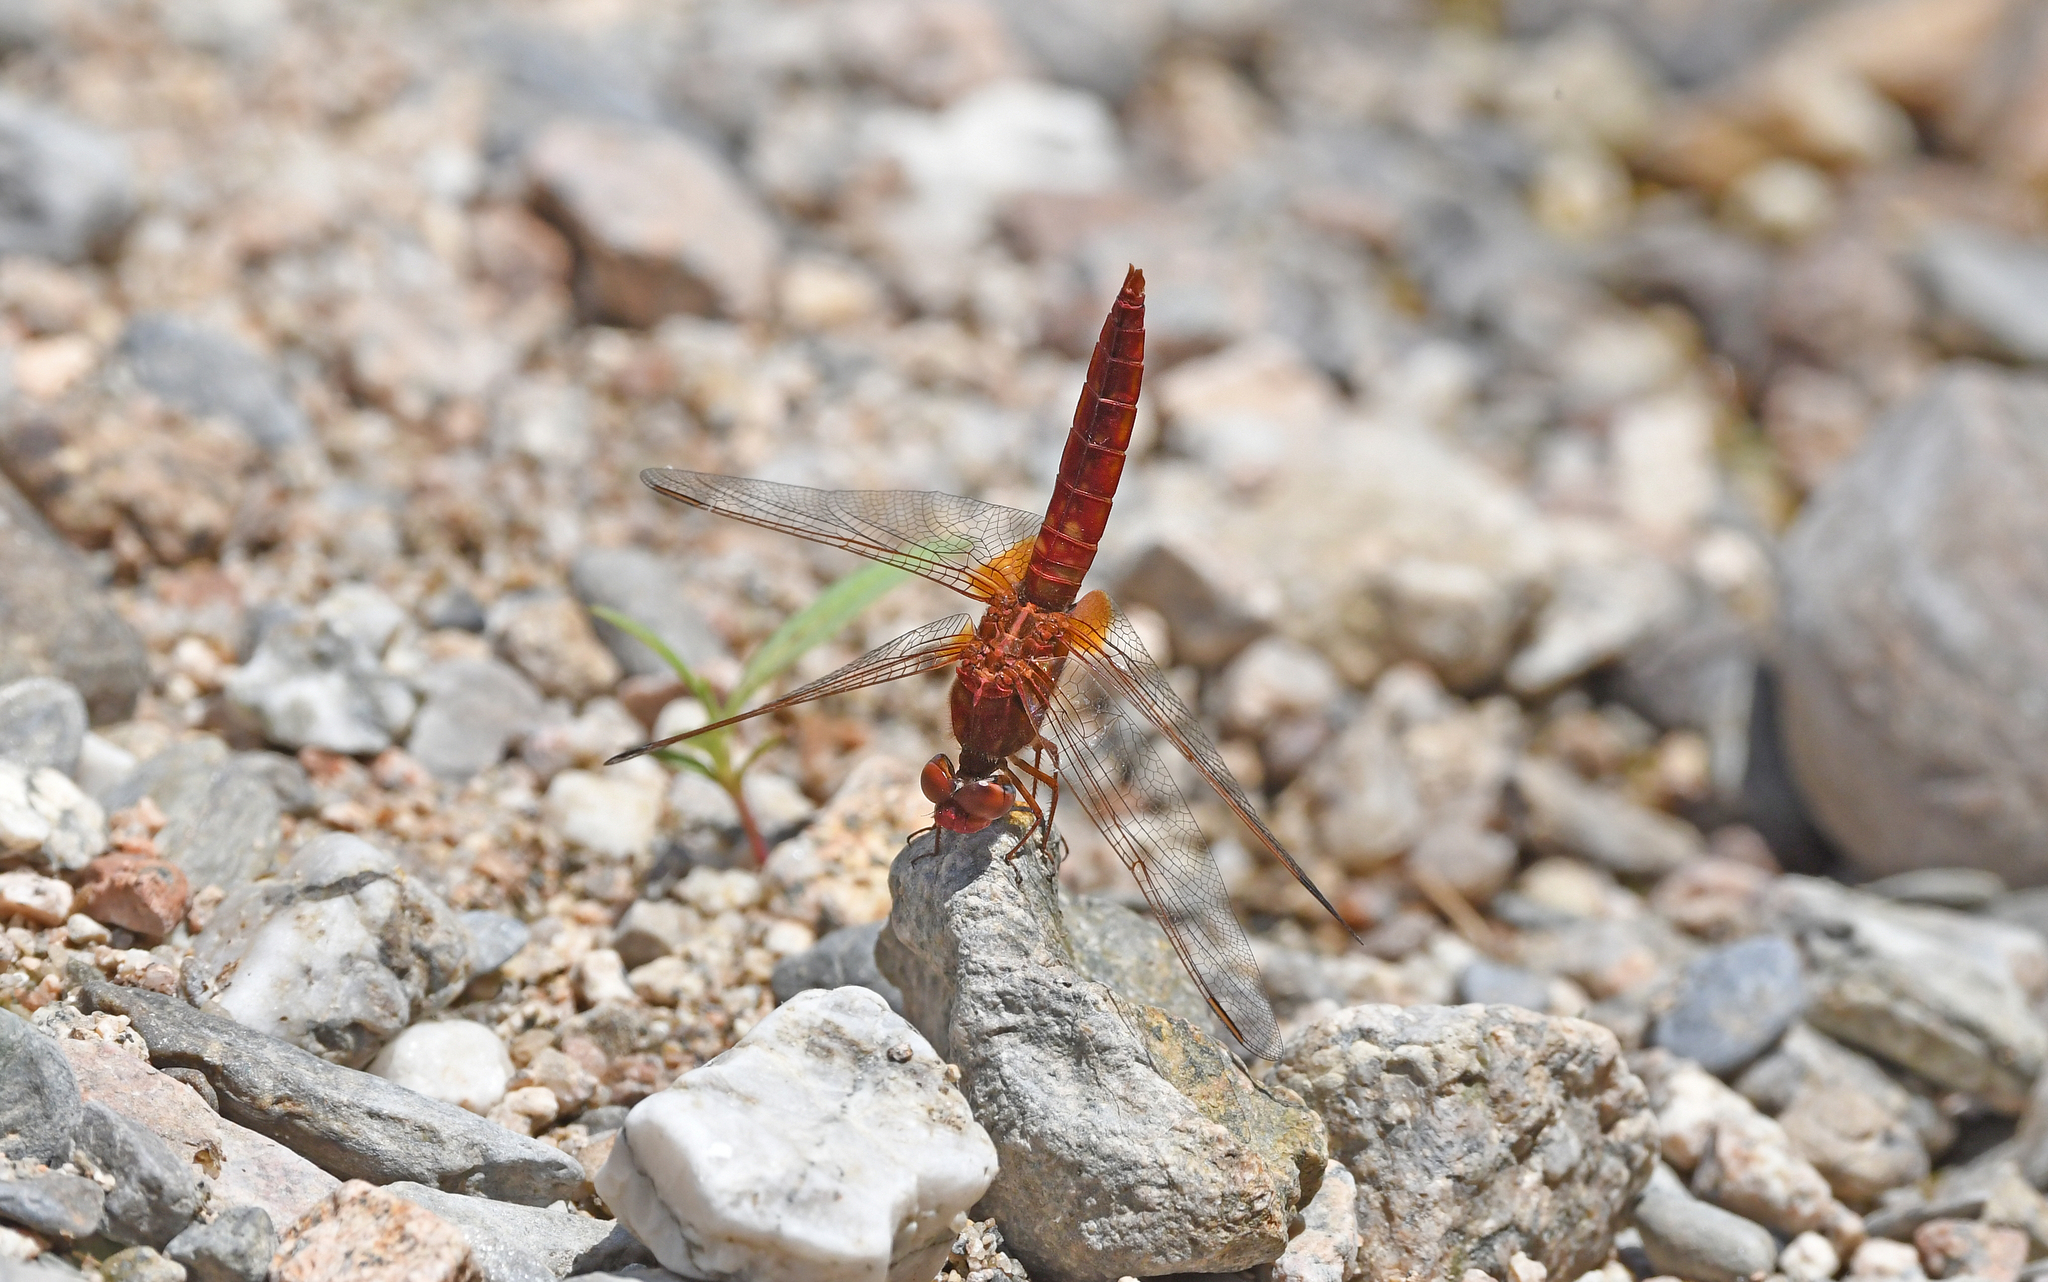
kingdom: Animalia
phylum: Arthropoda
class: Insecta
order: Odonata
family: Libellulidae
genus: Crocothemis
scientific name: Crocothemis erythraea
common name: Scarlet dragonfly
